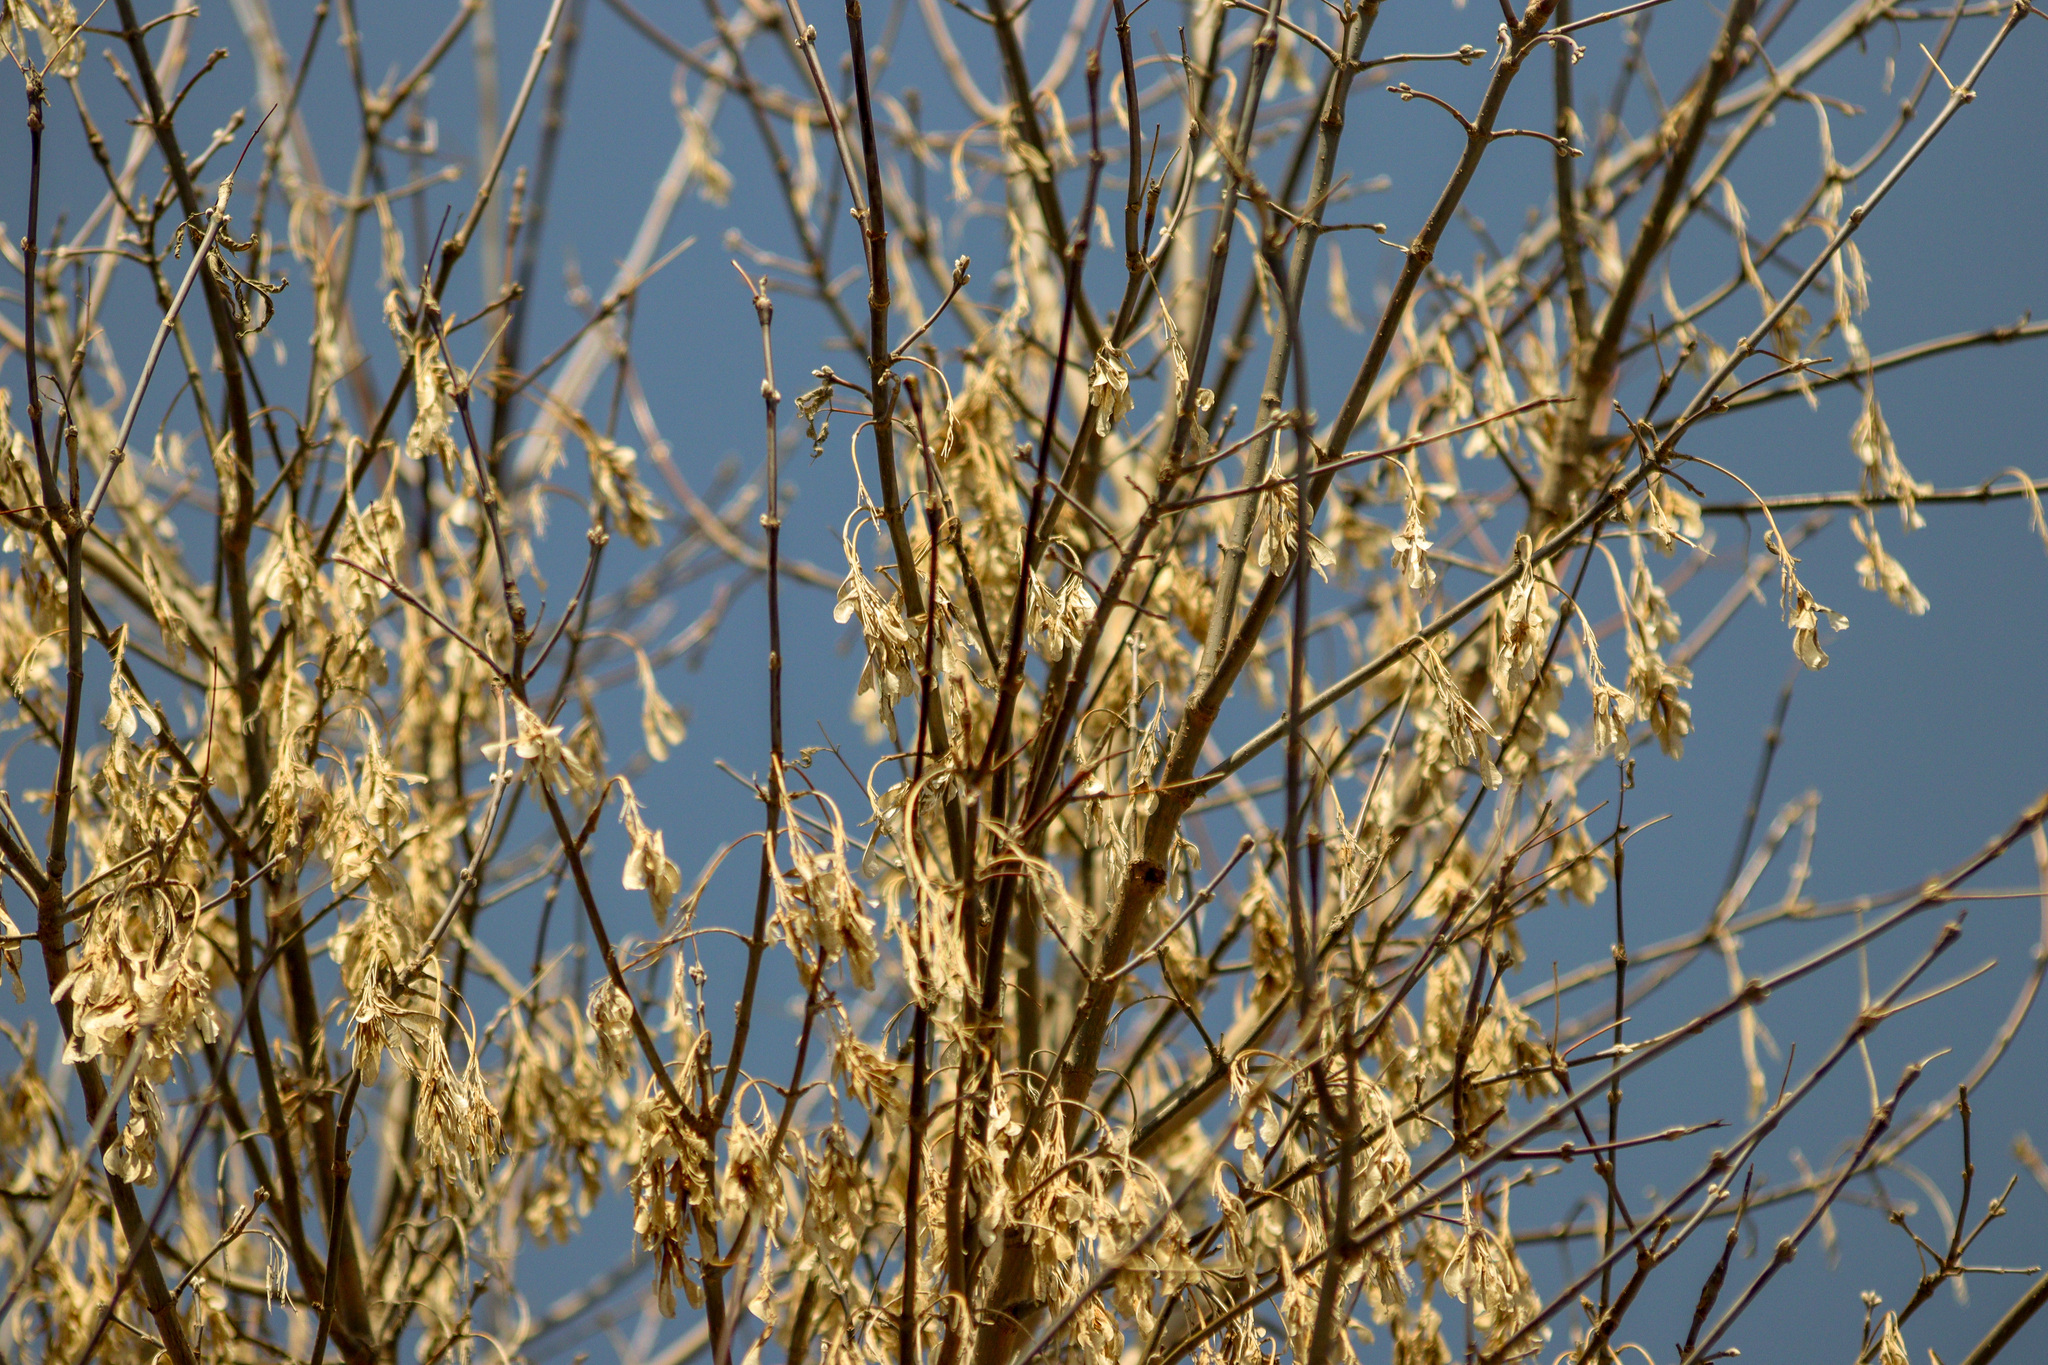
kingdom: Plantae
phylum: Tracheophyta
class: Magnoliopsida
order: Sapindales
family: Sapindaceae
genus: Acer
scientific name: Acer negundo
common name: Ashleaf maple
